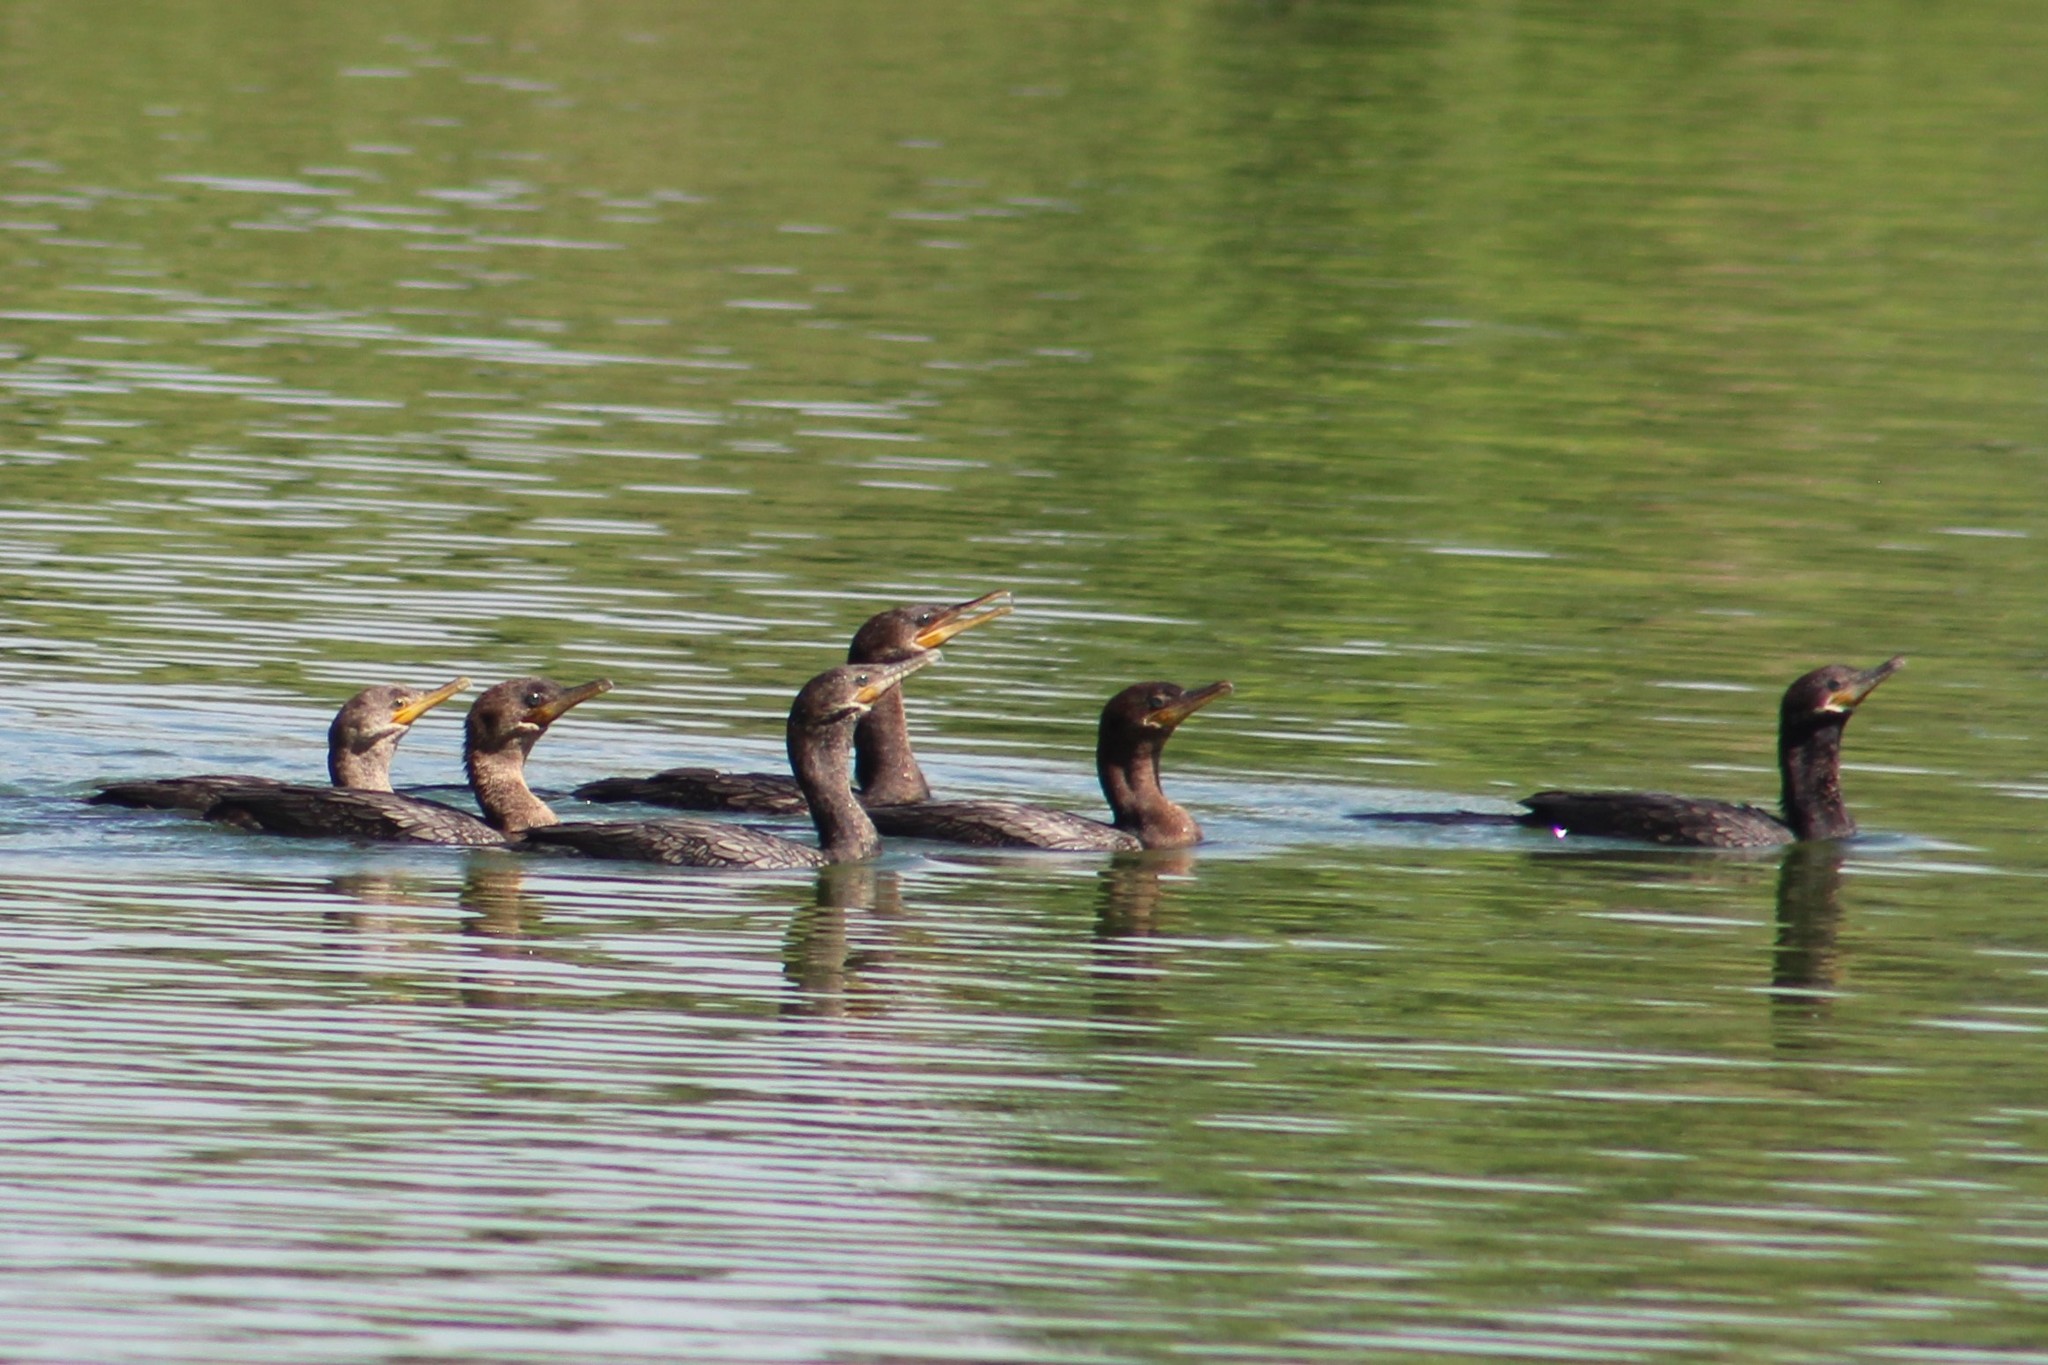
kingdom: Animalia
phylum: Chordata
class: Aves
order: Suliformes
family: Phalacrocoracidae
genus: Phalacrocorax
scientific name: Phalacrocorax brasilianus
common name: Neotropic cormorant
